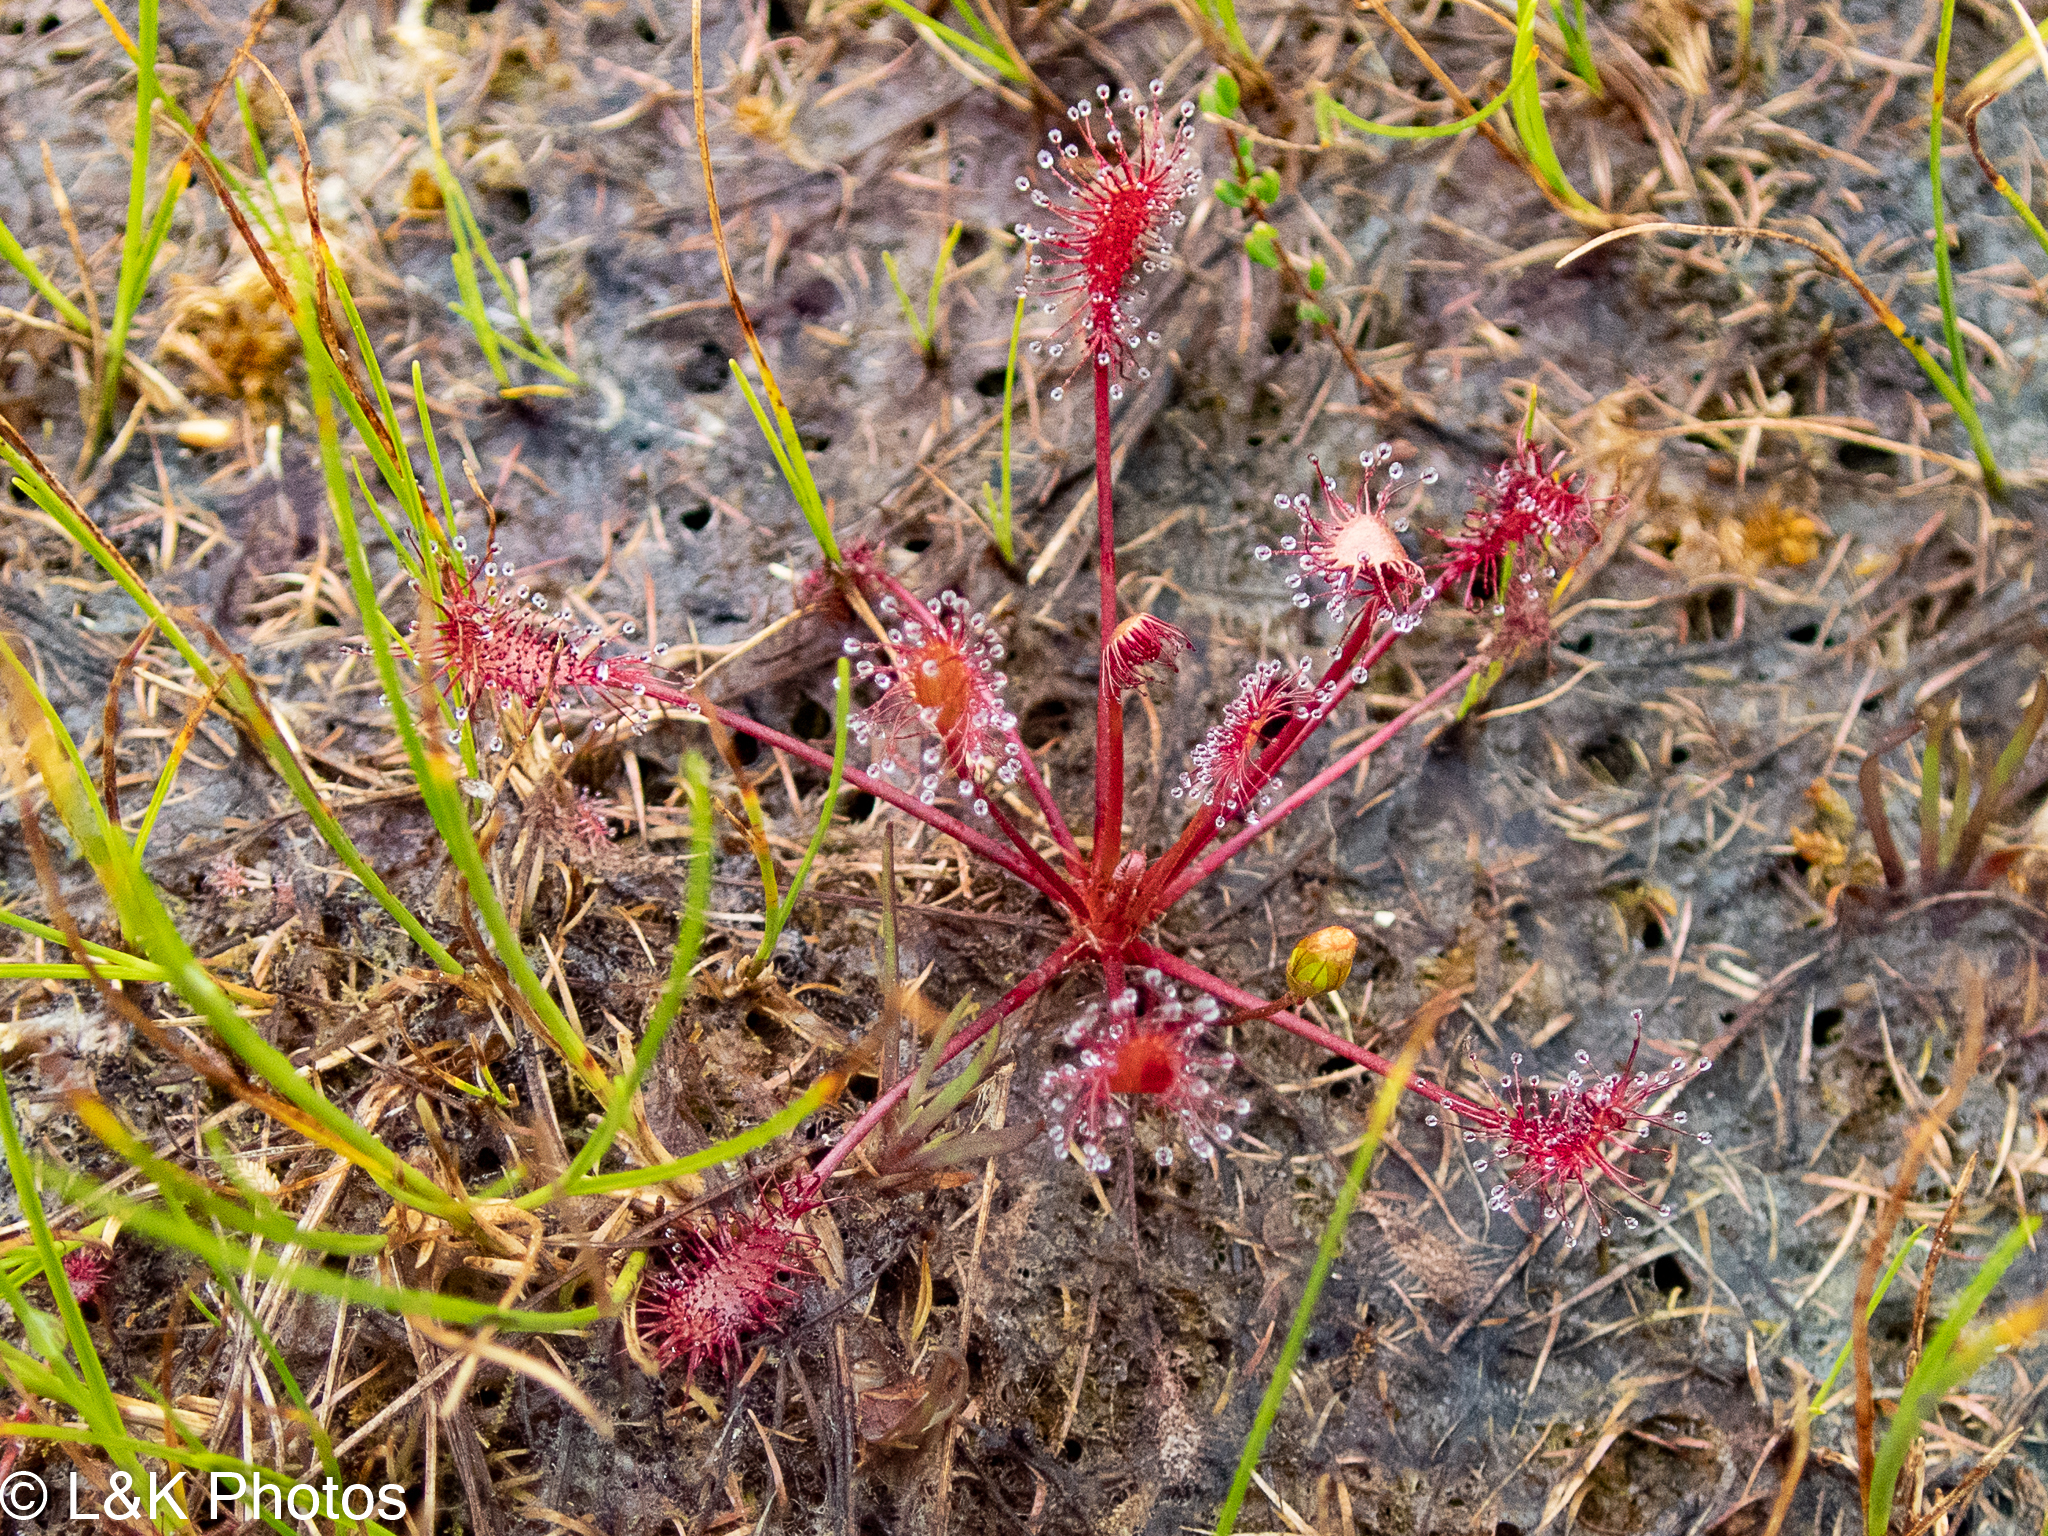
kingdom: Plantae
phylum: Tracheophyta
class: Magnoliopsida
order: Caryophyllales
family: Droseraceae
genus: Drosera
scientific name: Drosera intermedia
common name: Oblong-leaved sundew
